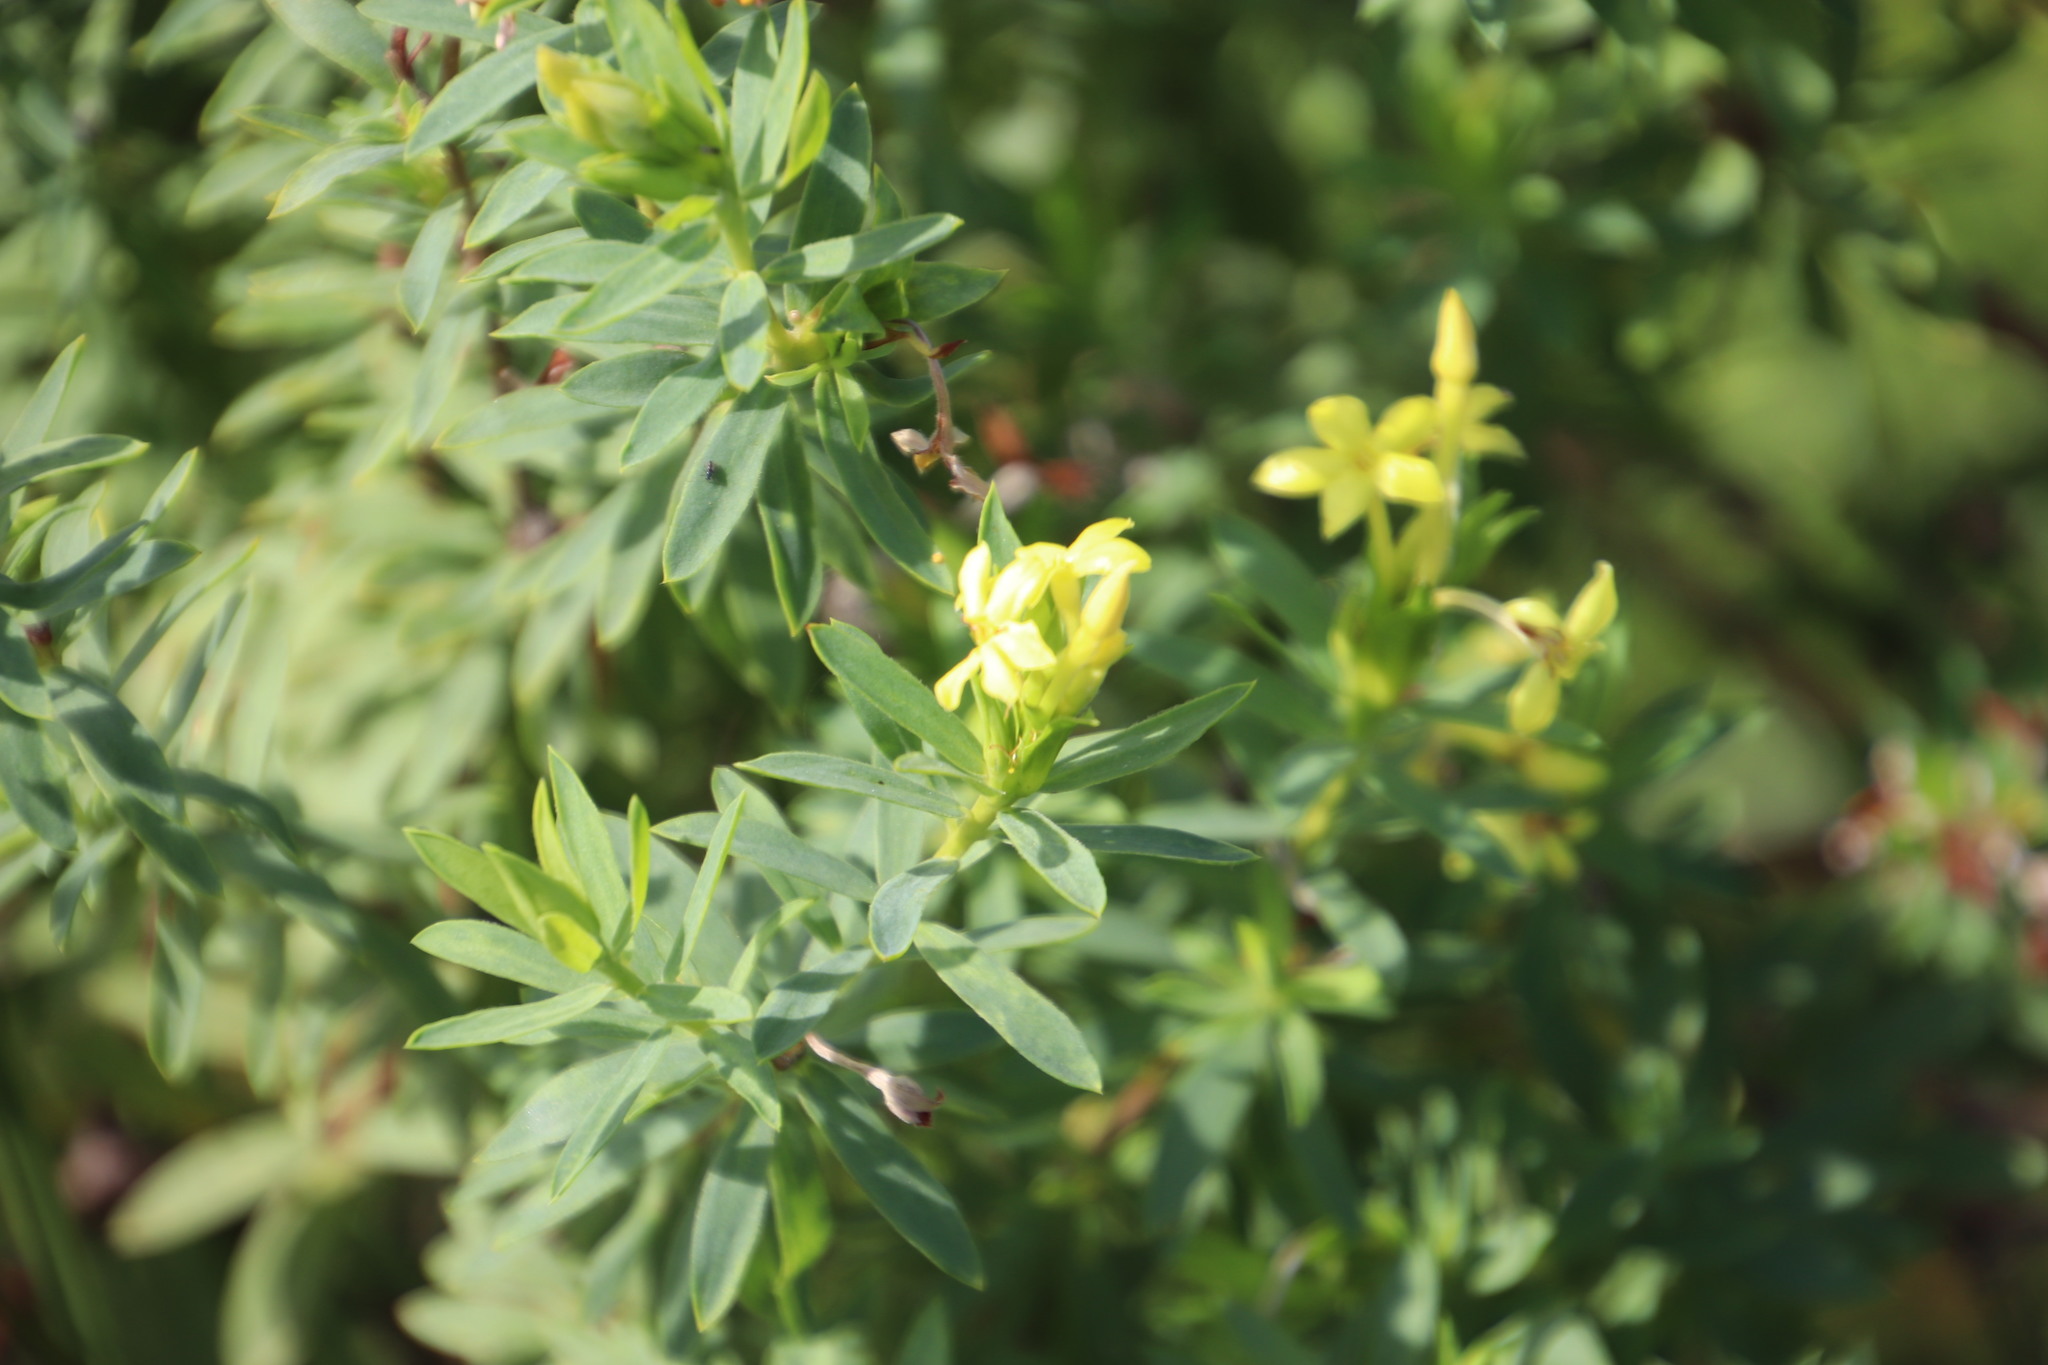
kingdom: Plantae
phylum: Tracheophyta
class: Magnoliopsida
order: Malvales
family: Thymelaeaceae
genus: Gnidia
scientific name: Gnidia triplinervis
